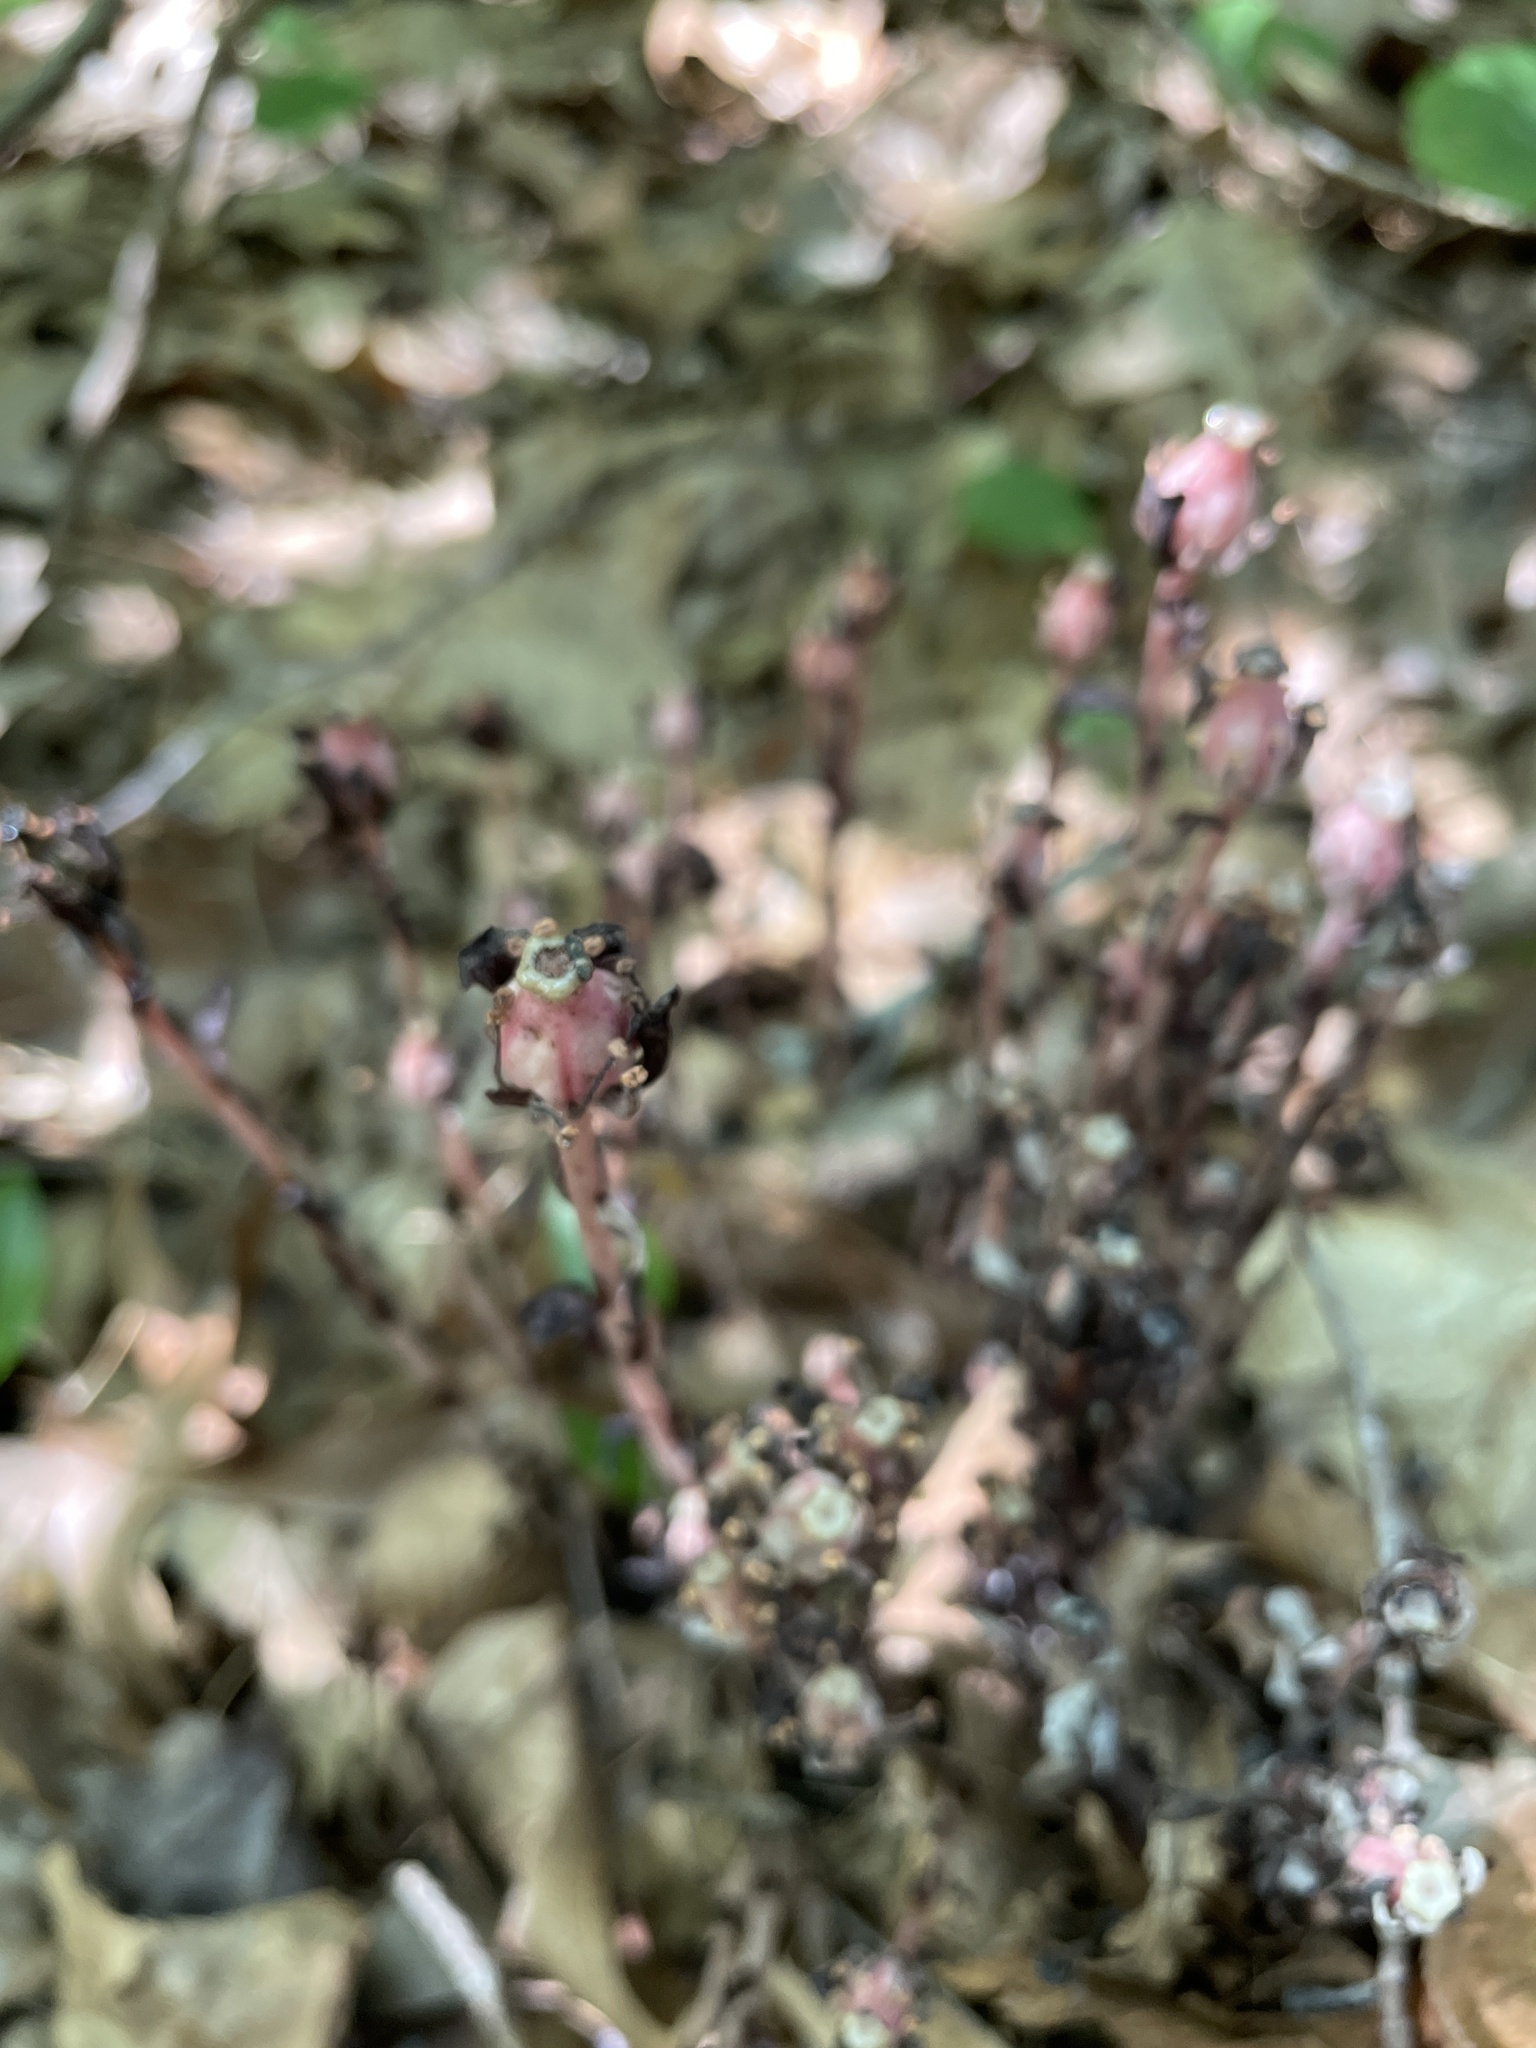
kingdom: Plantae
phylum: Tracheophyta
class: Magnoliopsida
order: Ericales
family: Ericaceae
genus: Monotropa
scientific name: Monotropa uniflora
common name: Convulsion root
